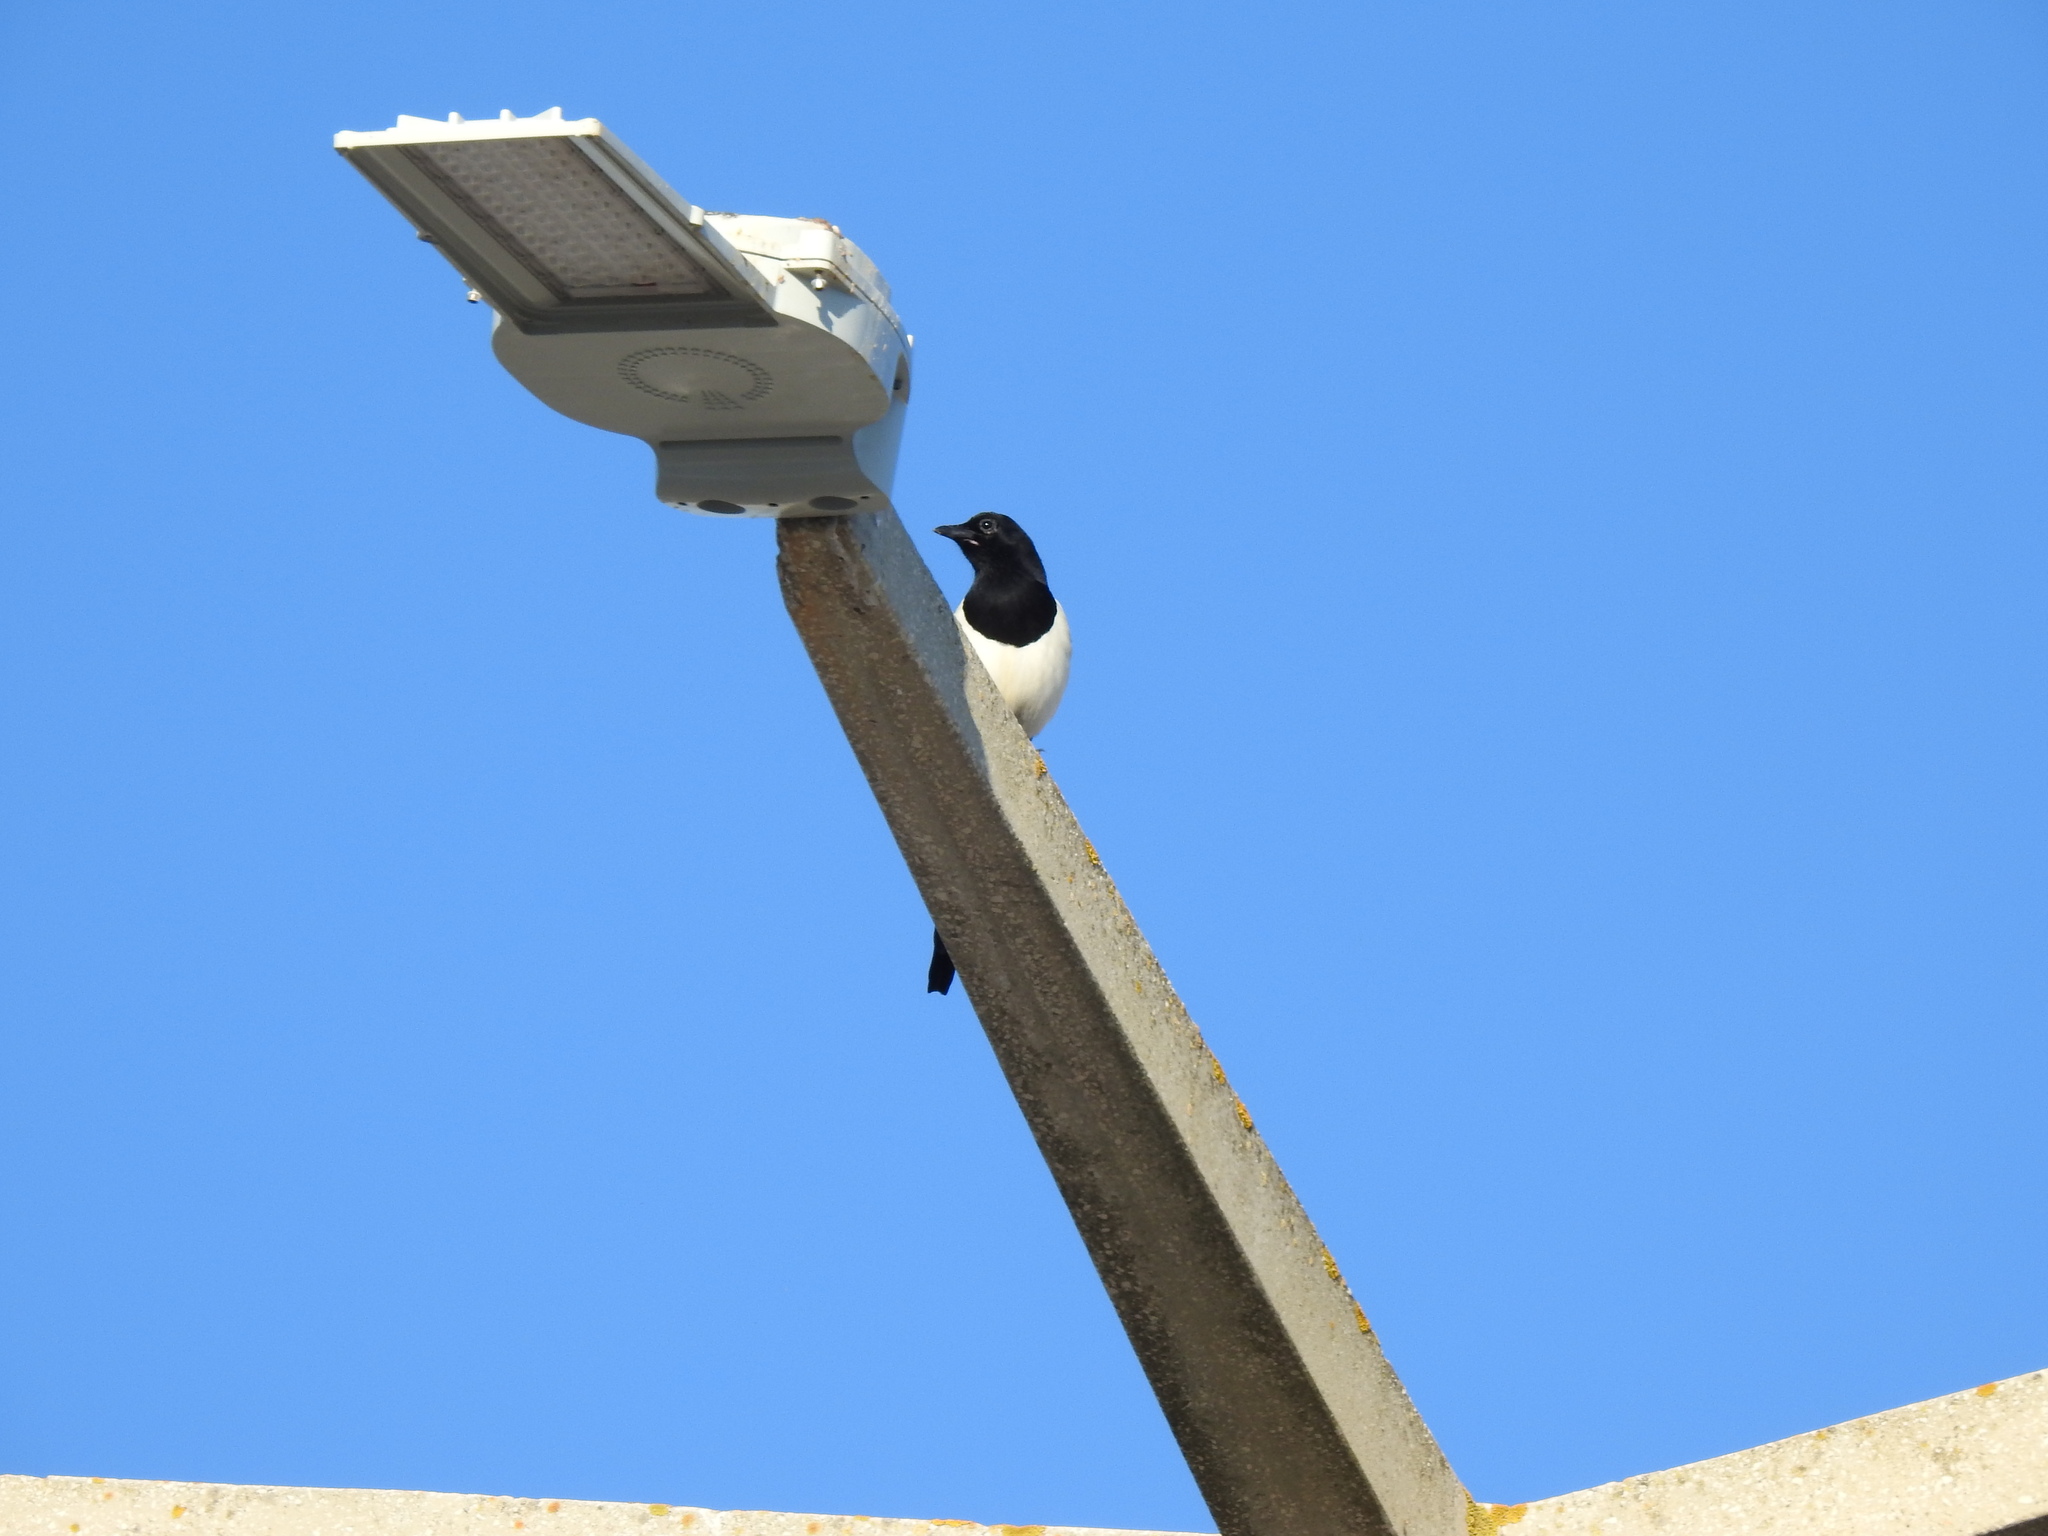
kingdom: Animalia
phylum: Chordata
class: Aves
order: Passeriformes
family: Corvidae
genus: Pica
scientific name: Pica pica
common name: Eurasian magpie
